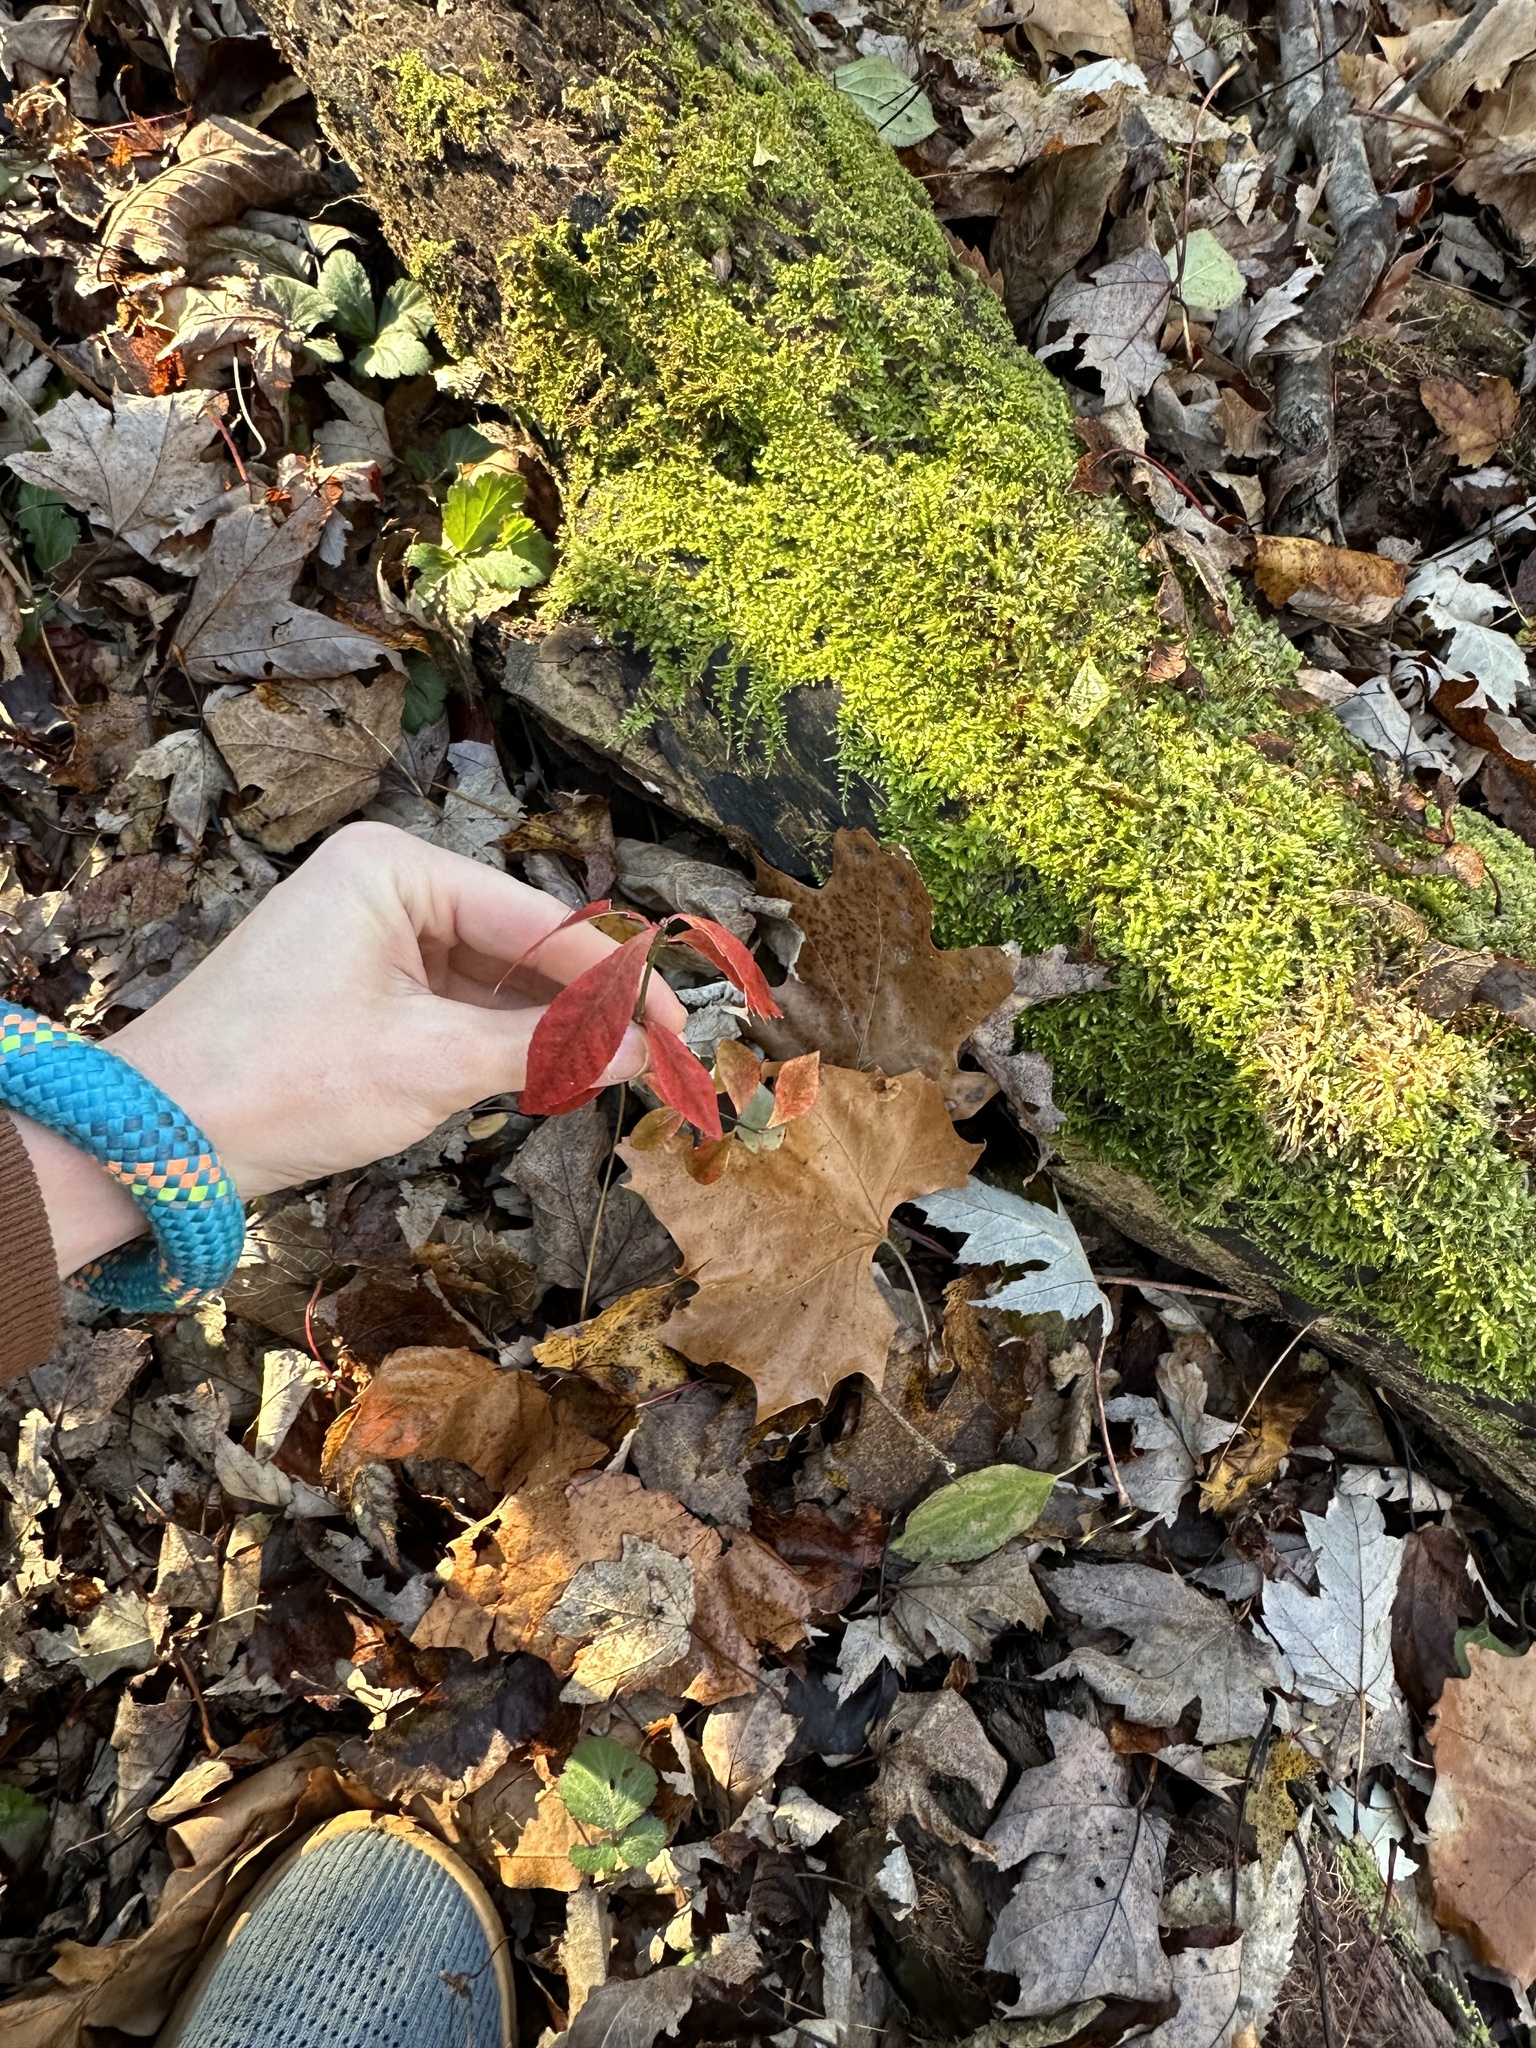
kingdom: Plantae
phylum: Tracheophyta
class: Magnoliopsida
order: Celastrales
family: Celastraceae
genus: Euonymus
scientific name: Euonymus alatus
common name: Winged euonymus
